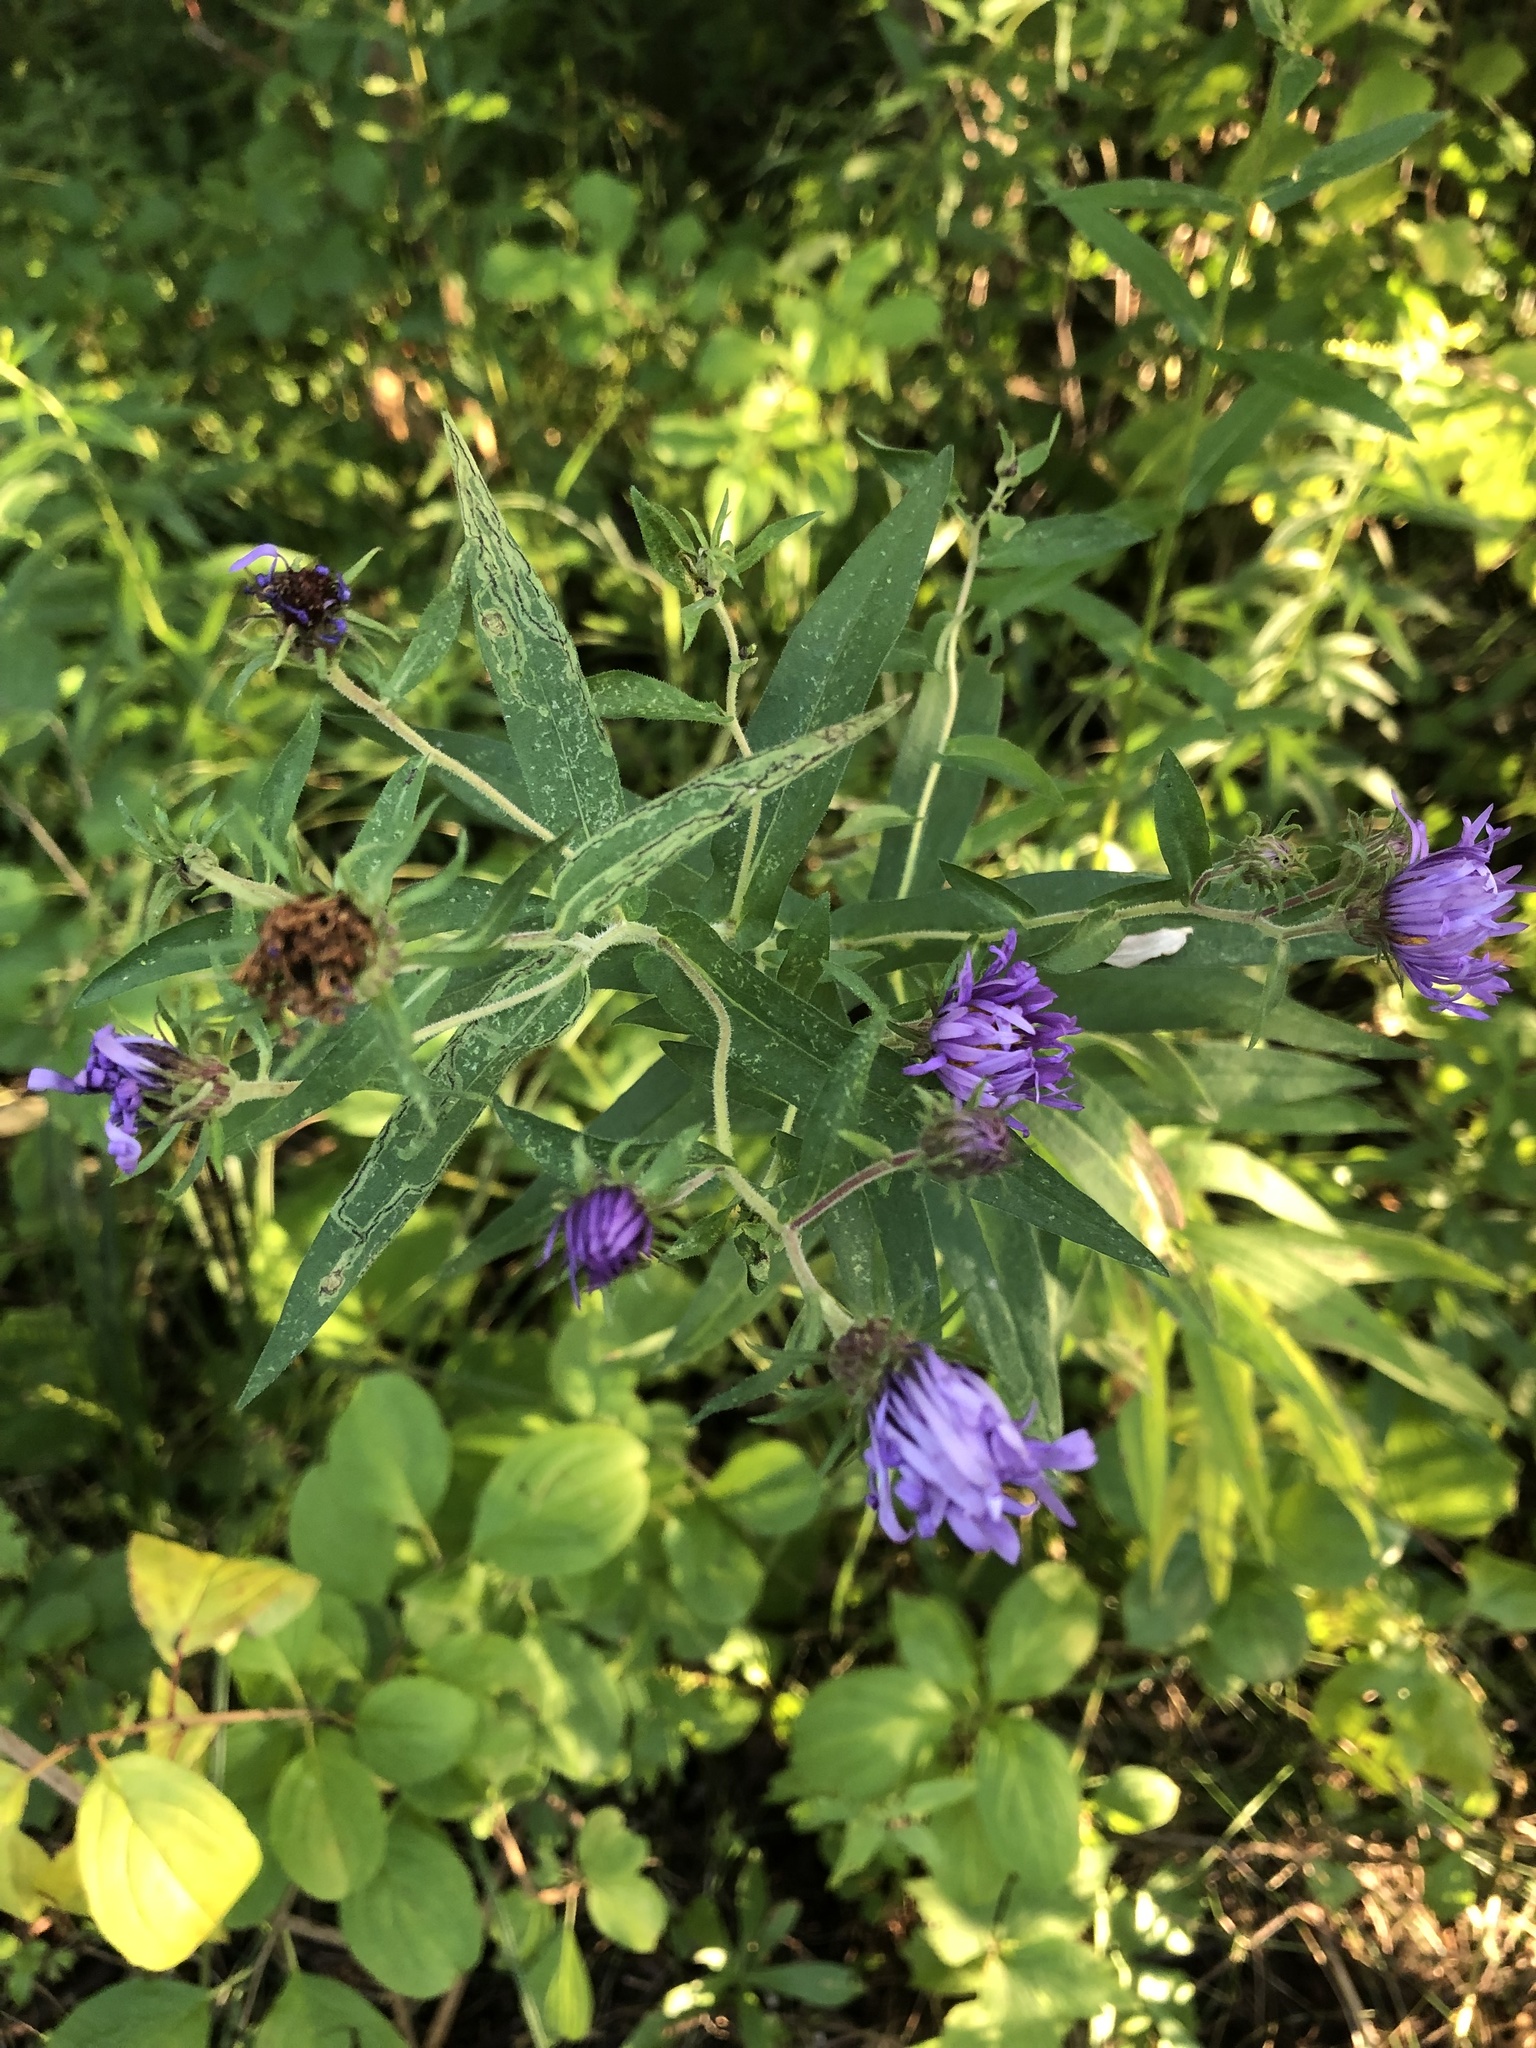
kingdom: Plantae
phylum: Tracheophyta
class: Magnoliopsida
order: Asterales
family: Asteraceae
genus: Symphyotrichum
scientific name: Symphyotrichum novae-angliae
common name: Michaelmas daisy
